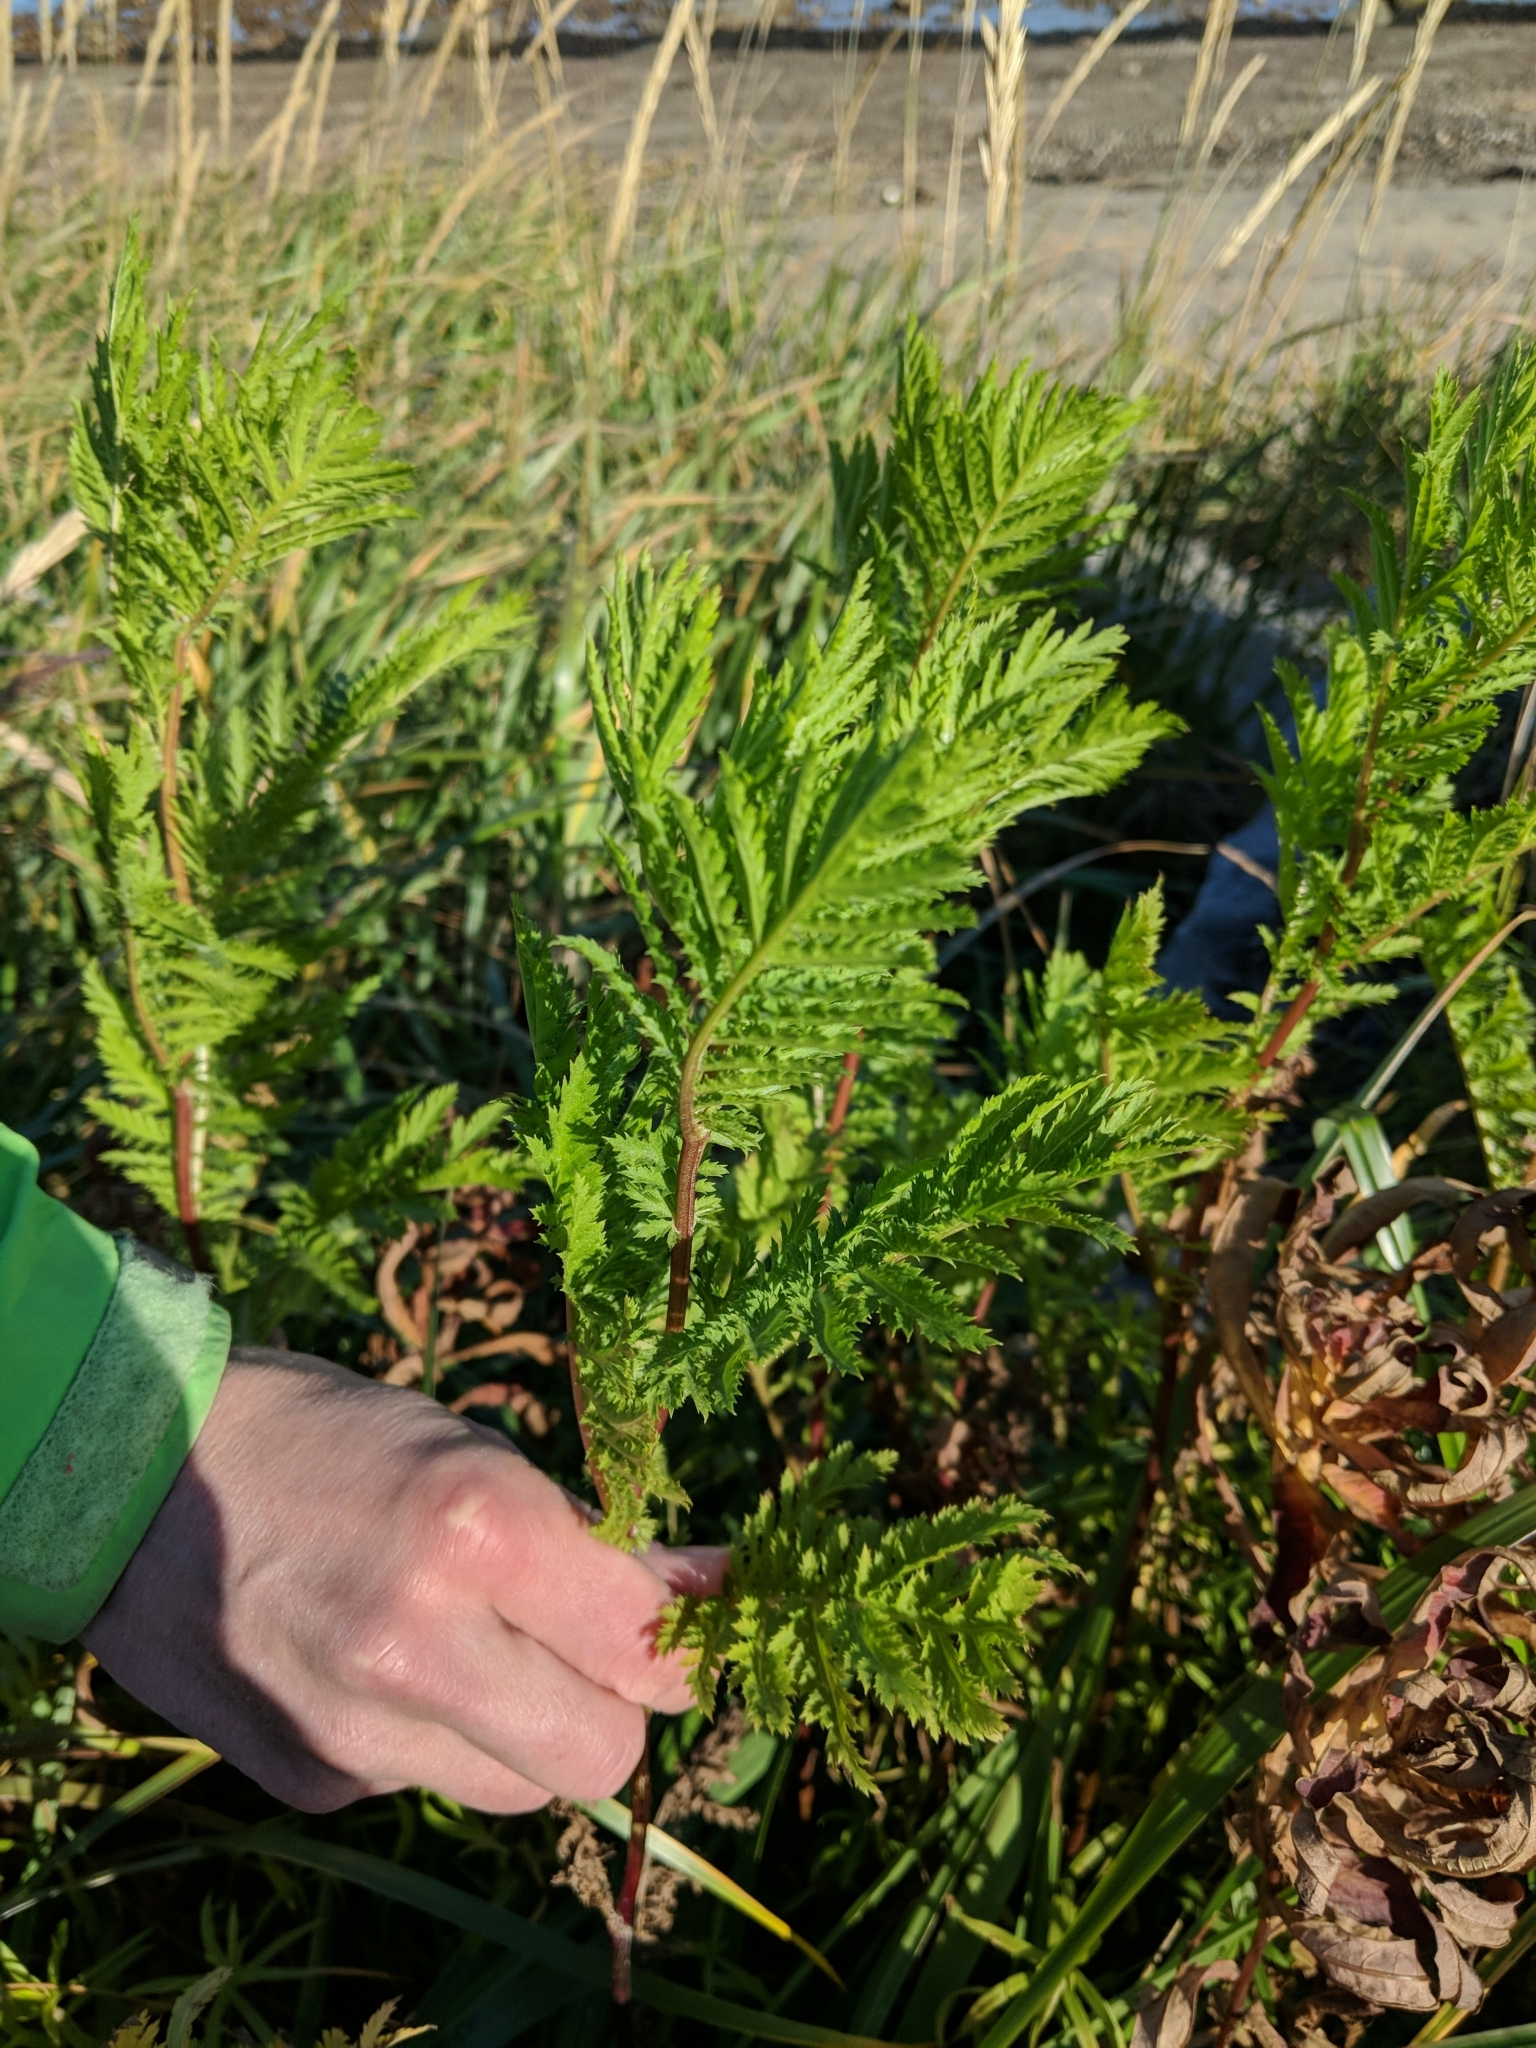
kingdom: Plantae
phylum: Tracheophyta
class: Magnoliopsida
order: Asterales
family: Asteraceae
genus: Tanacetum
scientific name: Tanacetum vulgare
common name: Common tansy
